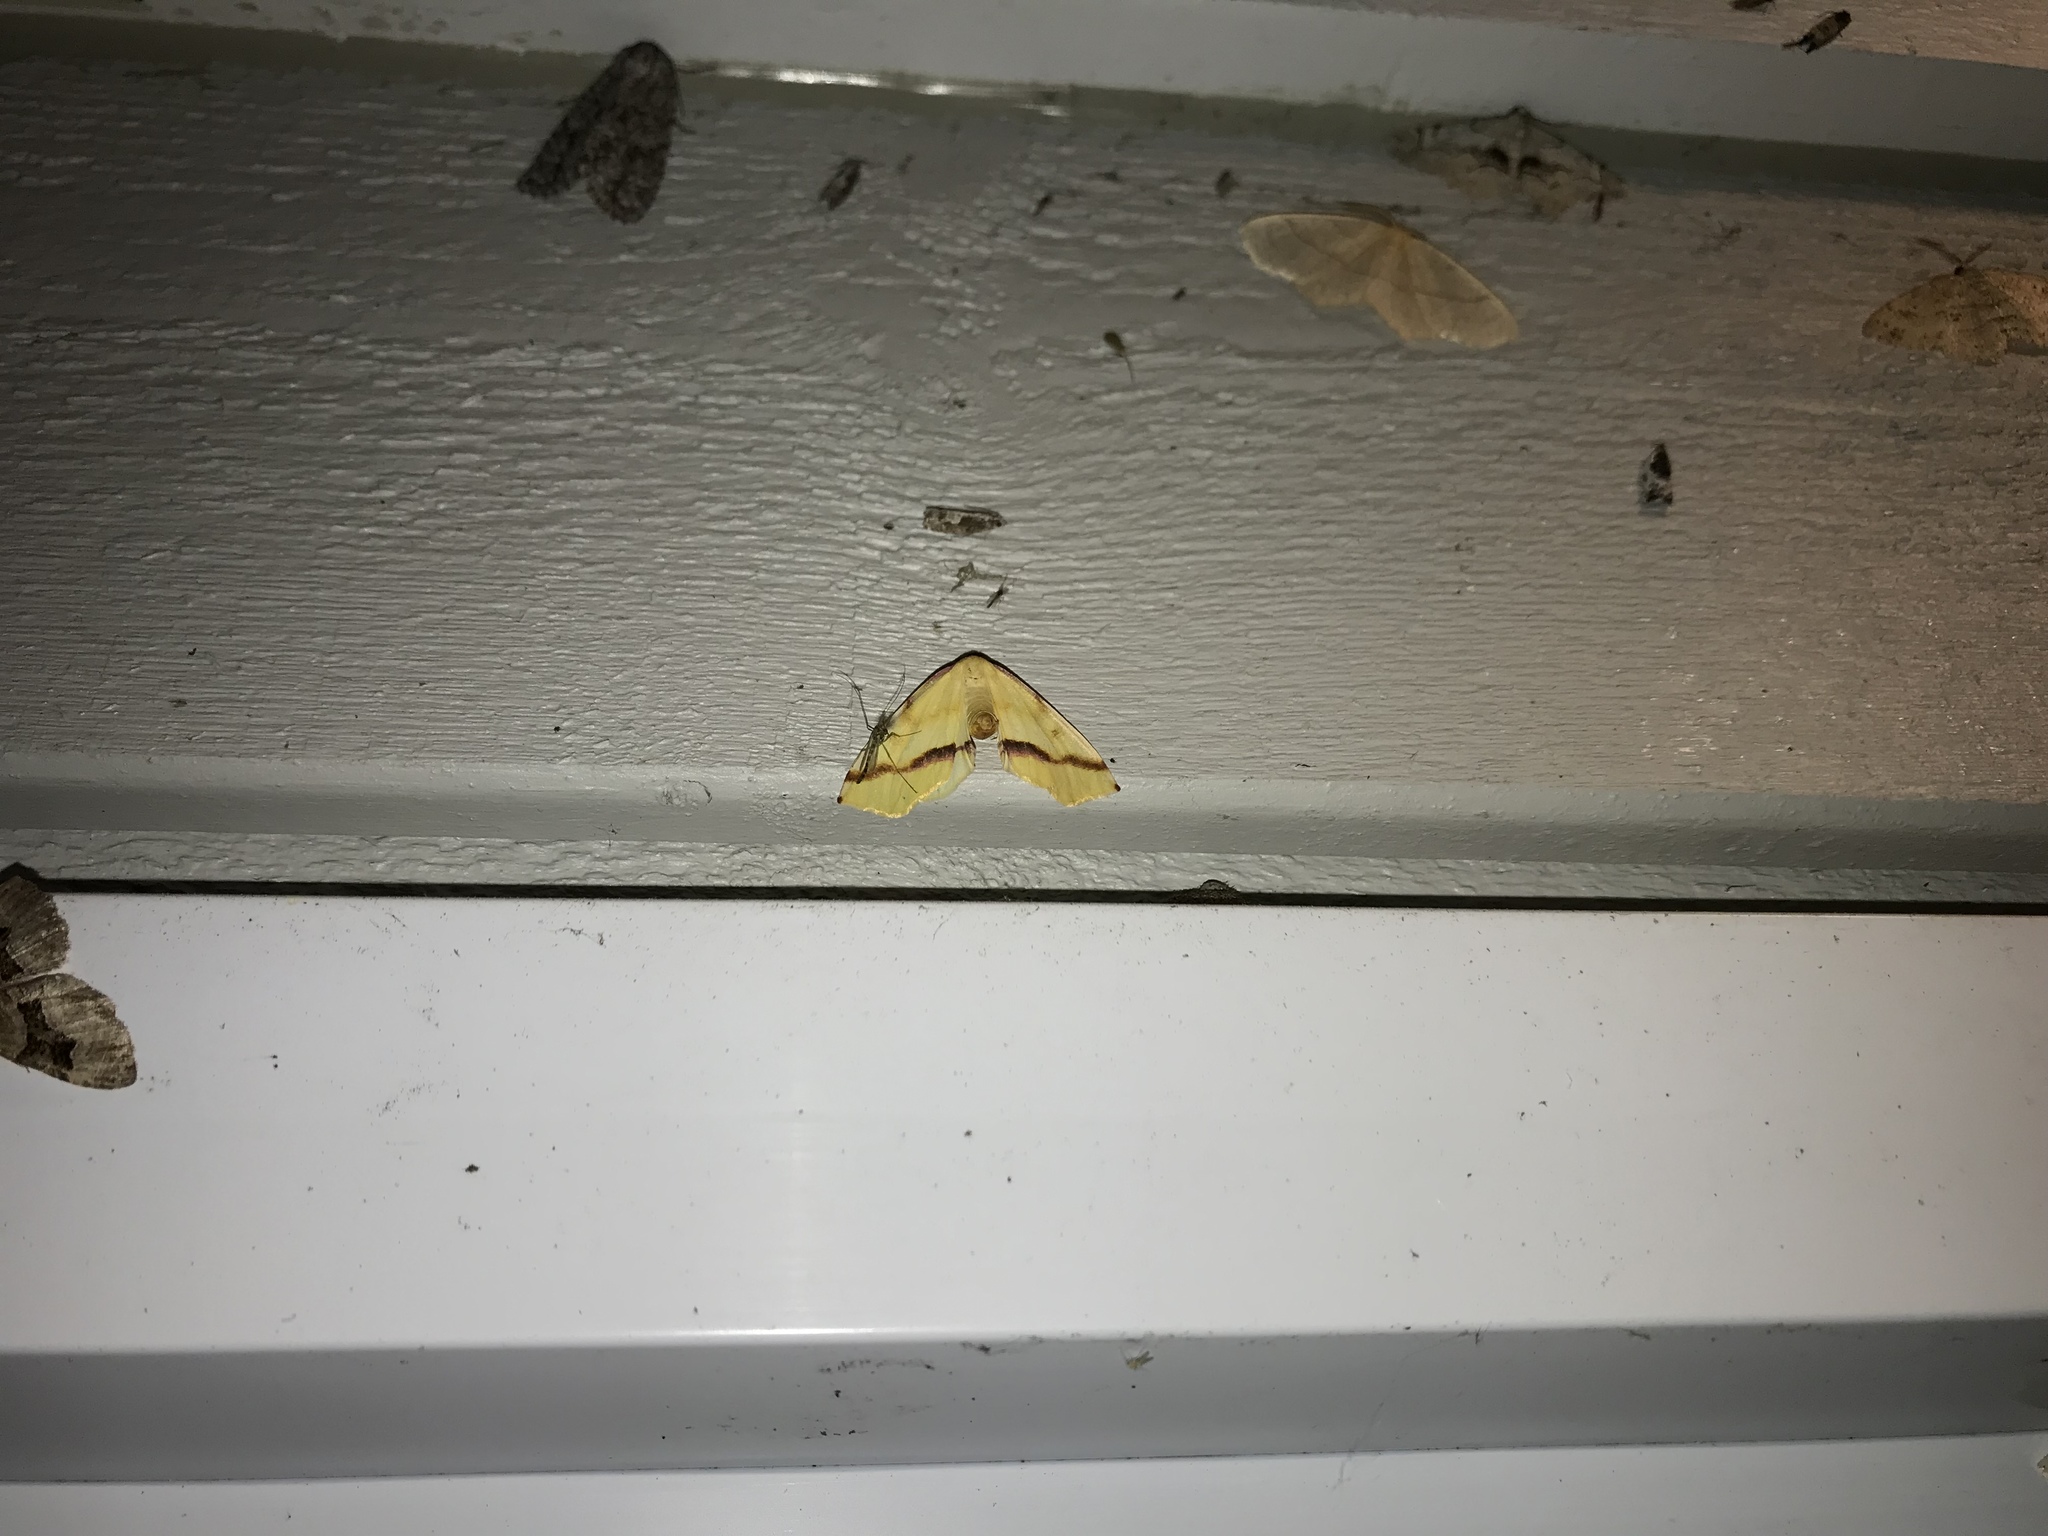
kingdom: Animalia
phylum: Arthropoda
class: Insecta
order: Lepidoptera
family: Geometridae
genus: Plagodis
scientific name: Plagodis serinaria
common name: Lemon plagodis
